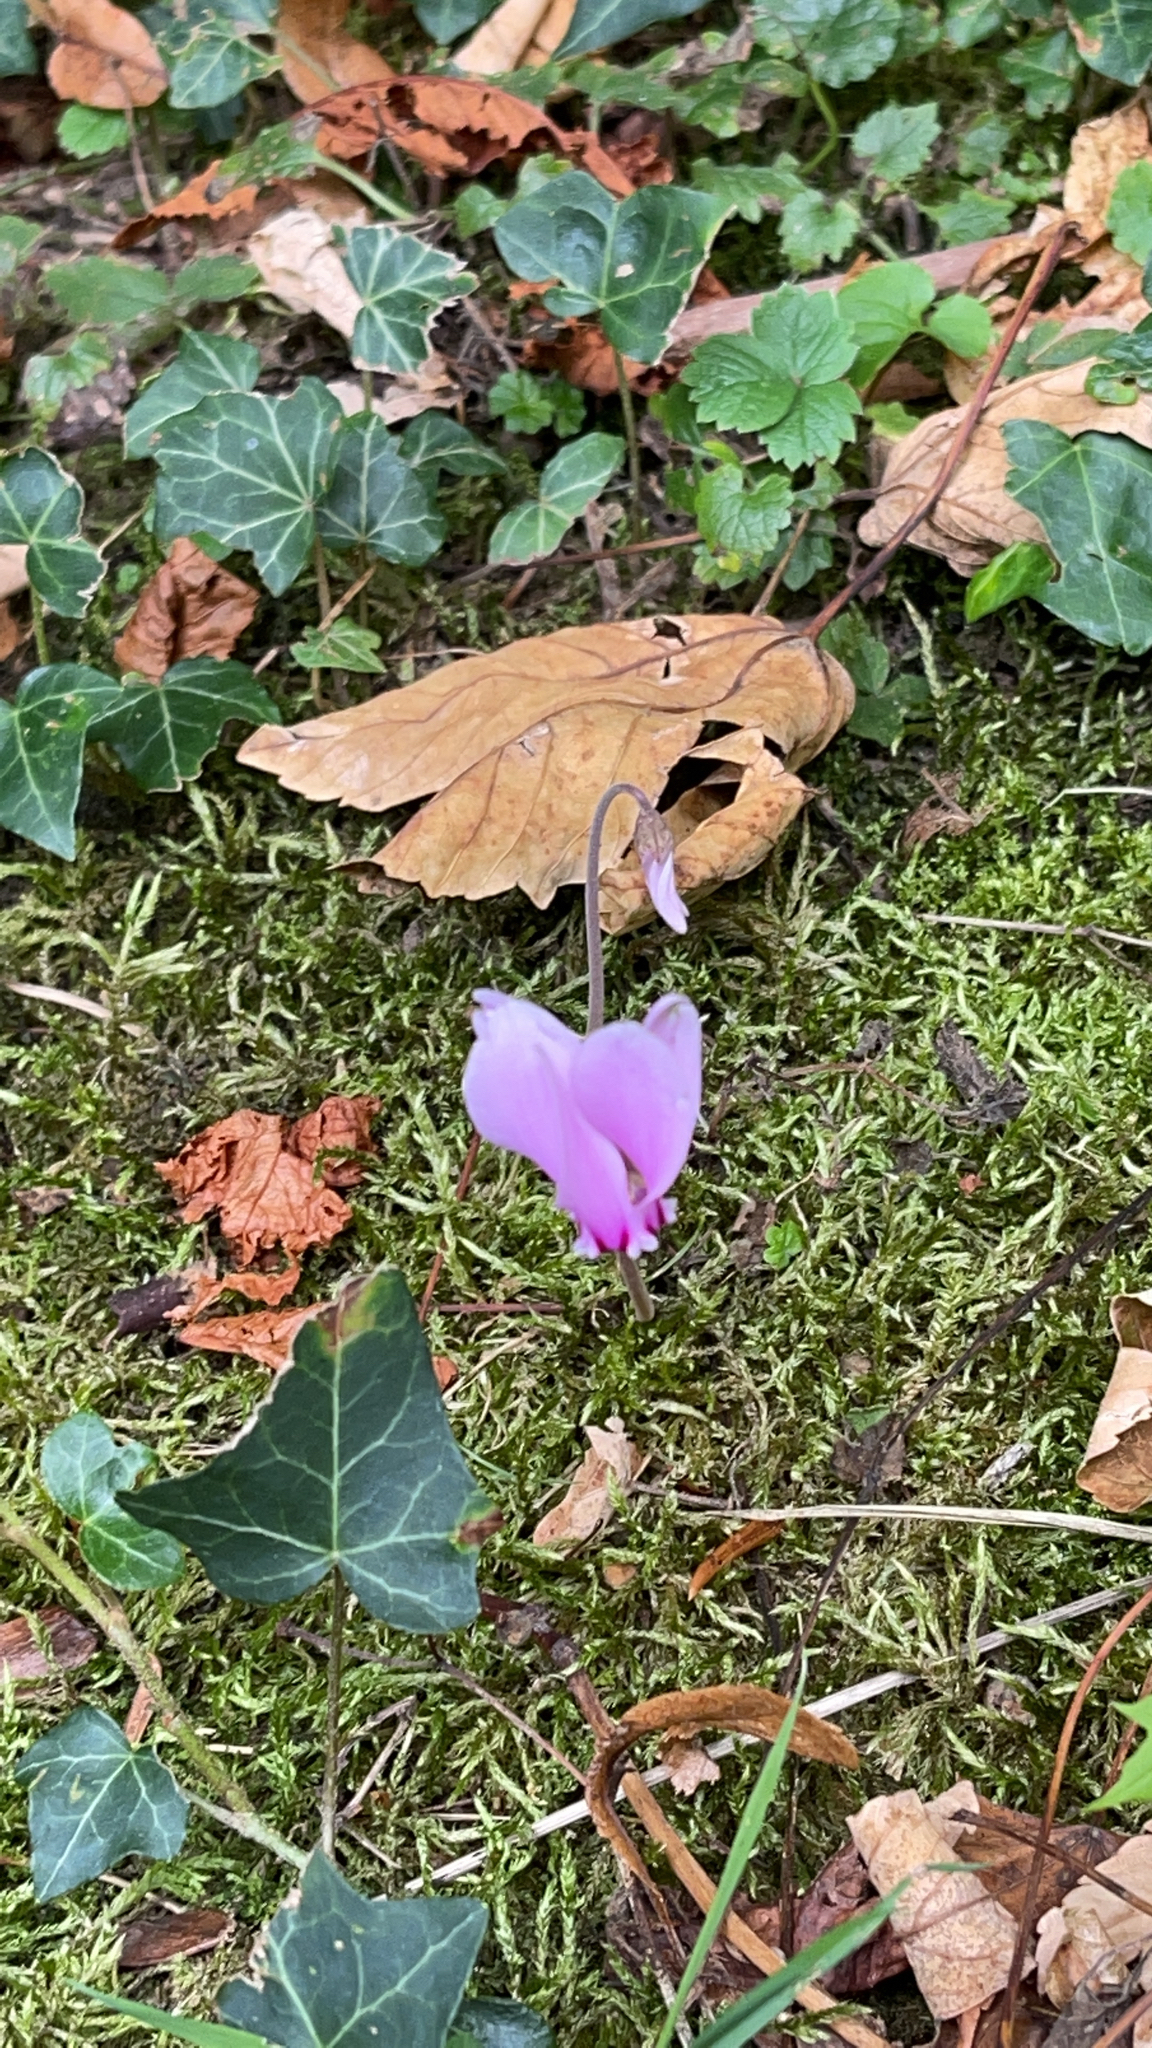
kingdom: Plantae
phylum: Tracheophyta
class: Magnoliopsida
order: Ericales
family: Primulaceae
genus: Cyclamen
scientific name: Cyclamen hederifolium
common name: Sowbread
